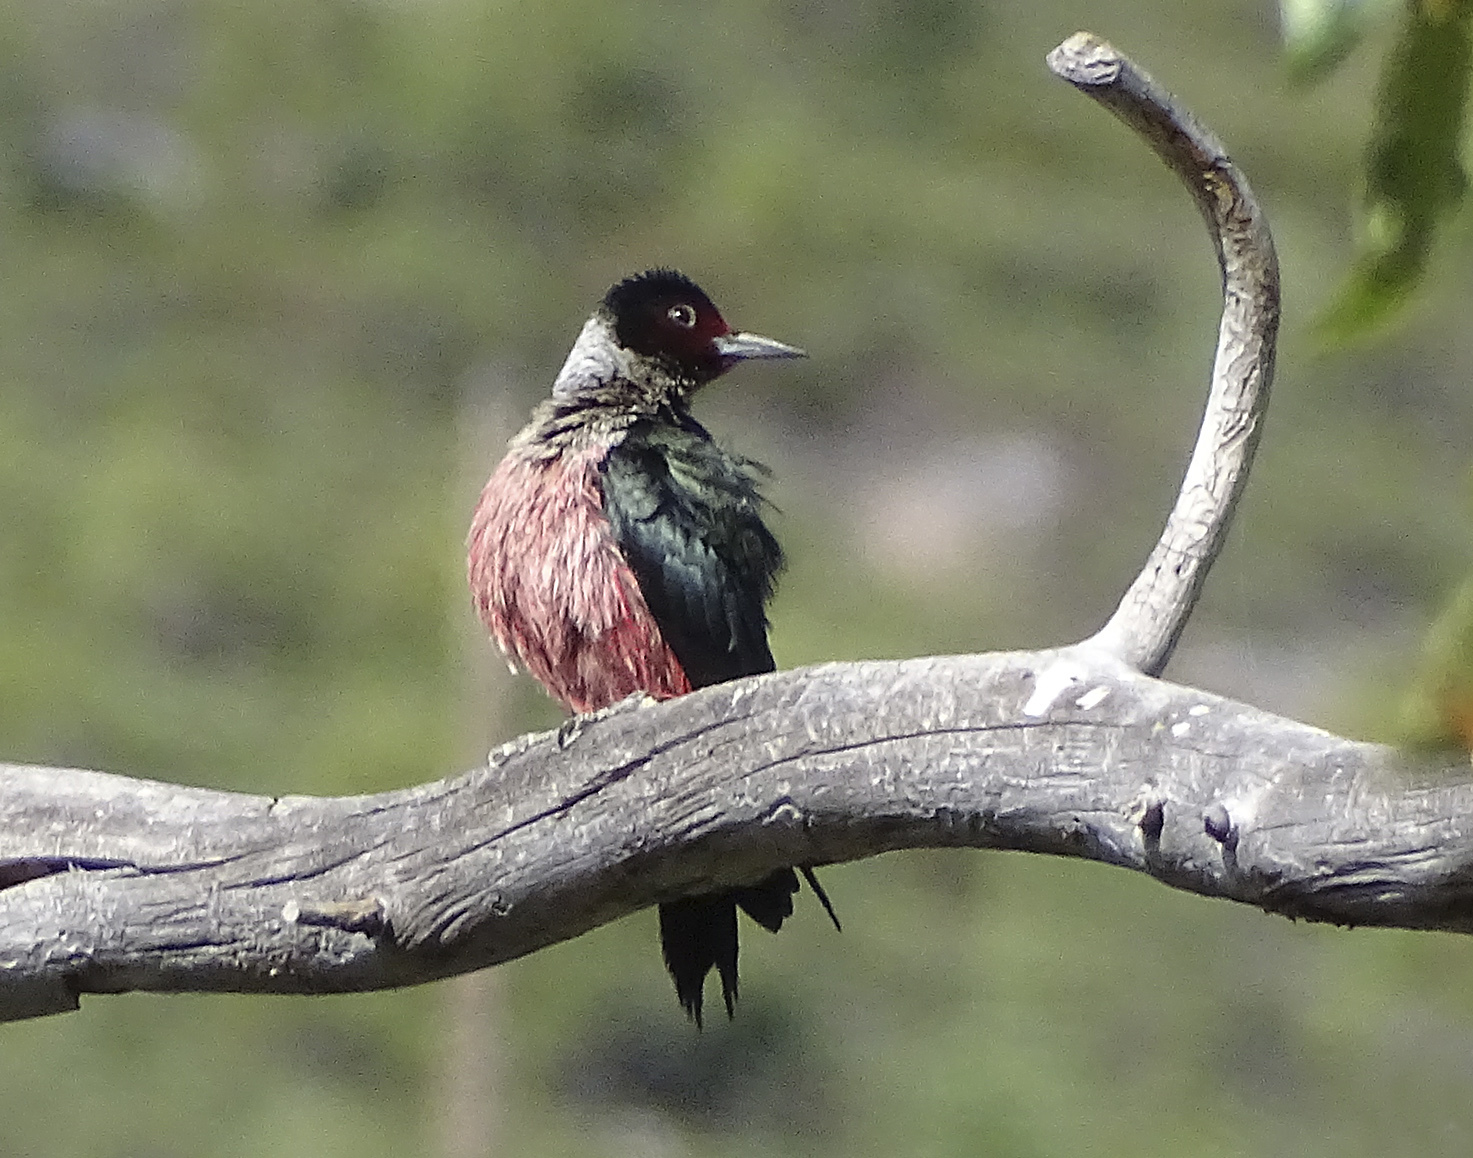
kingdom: Animalia
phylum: Chordata
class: Aves
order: Piciformes
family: Picidae
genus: Melanerpes
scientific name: Melanerpes lewis
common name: Lewis's woodpecker
